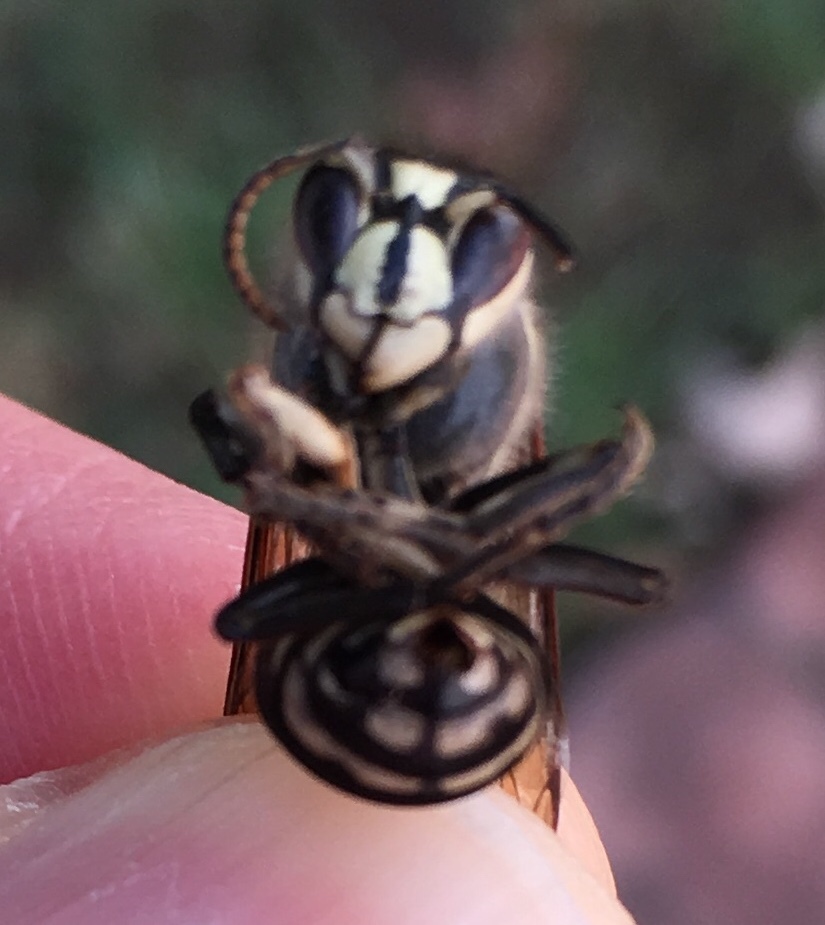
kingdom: Animalia
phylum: Arthropoda
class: Insecta
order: Hymenoptera
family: Vespidae
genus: Dolichovespula
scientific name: Dolichovespula maculata
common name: Bald-faced hornet
